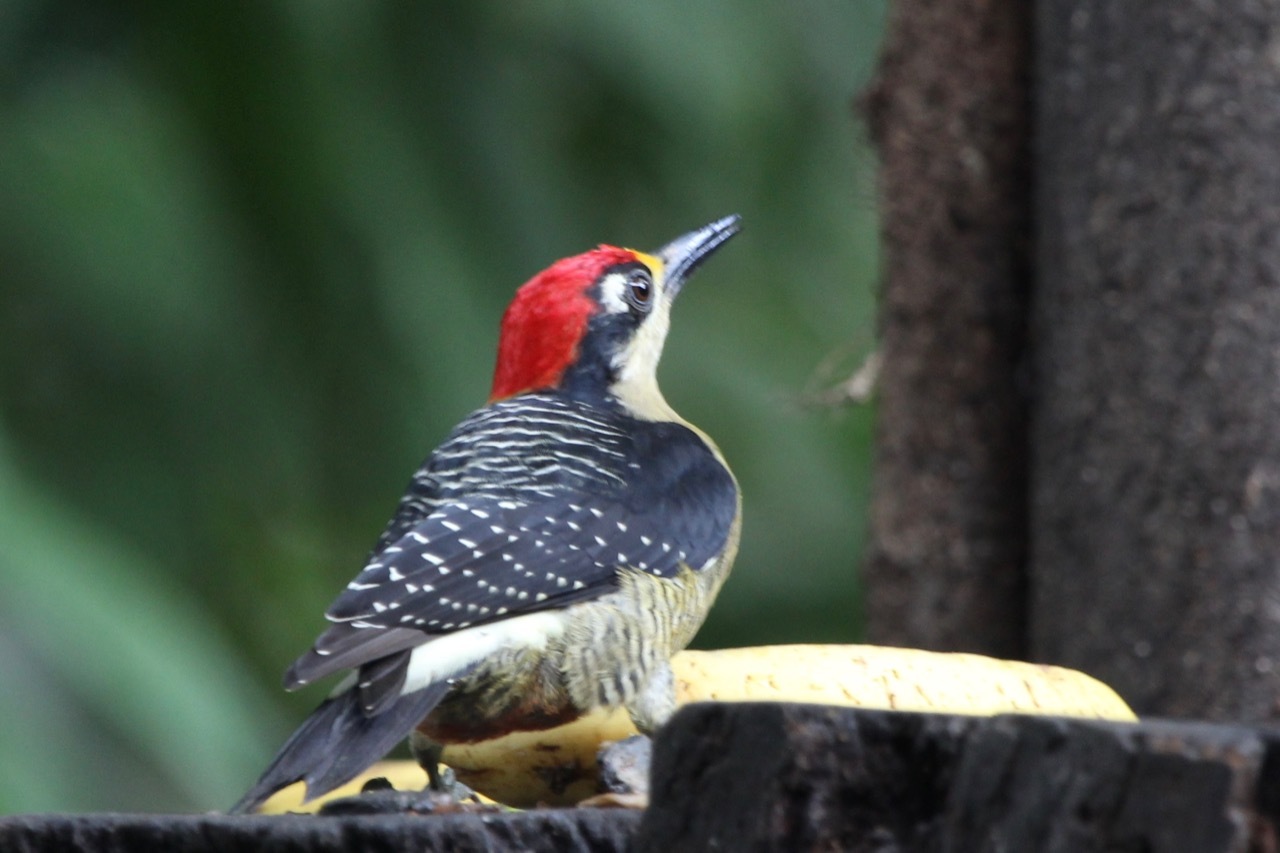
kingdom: Animalia
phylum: Chordata
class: Aves
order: Piciformes
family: Picidae
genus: Melanerpes
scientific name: Melanerpes pucherani
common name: Black-cheeked woodpecker
